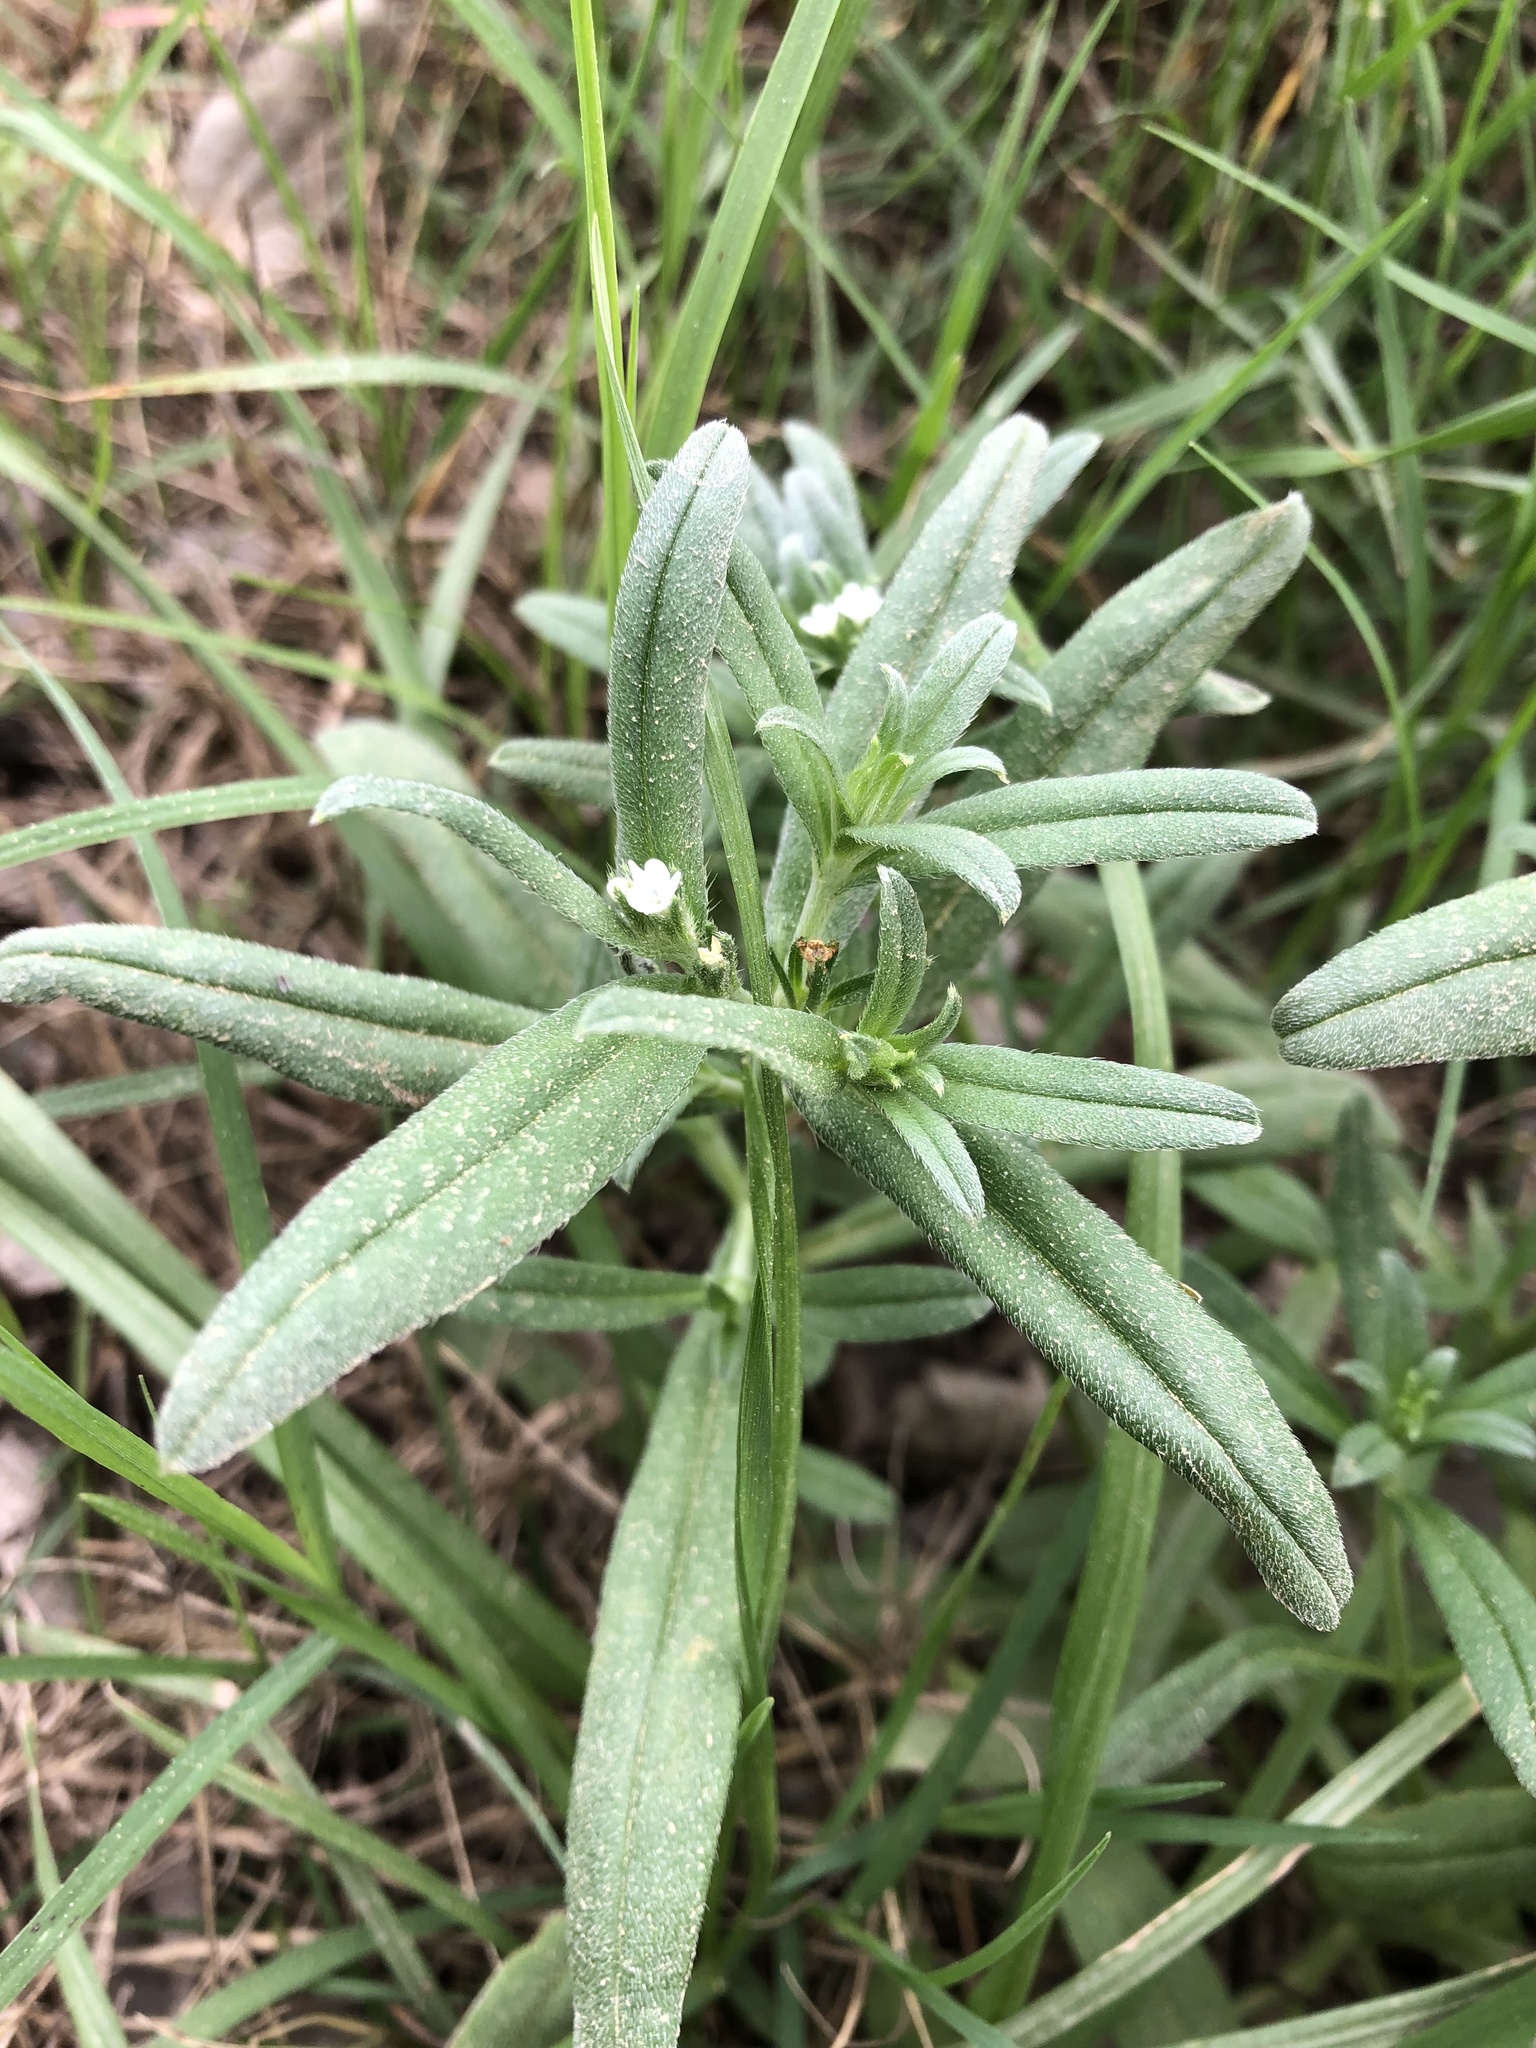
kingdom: Plantae
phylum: Tracheophyta
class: Magnoliopsida
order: Boraginales
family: Boraginaceae
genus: Buglossoides
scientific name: Buglossoides arvensis
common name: Corn gromwell
